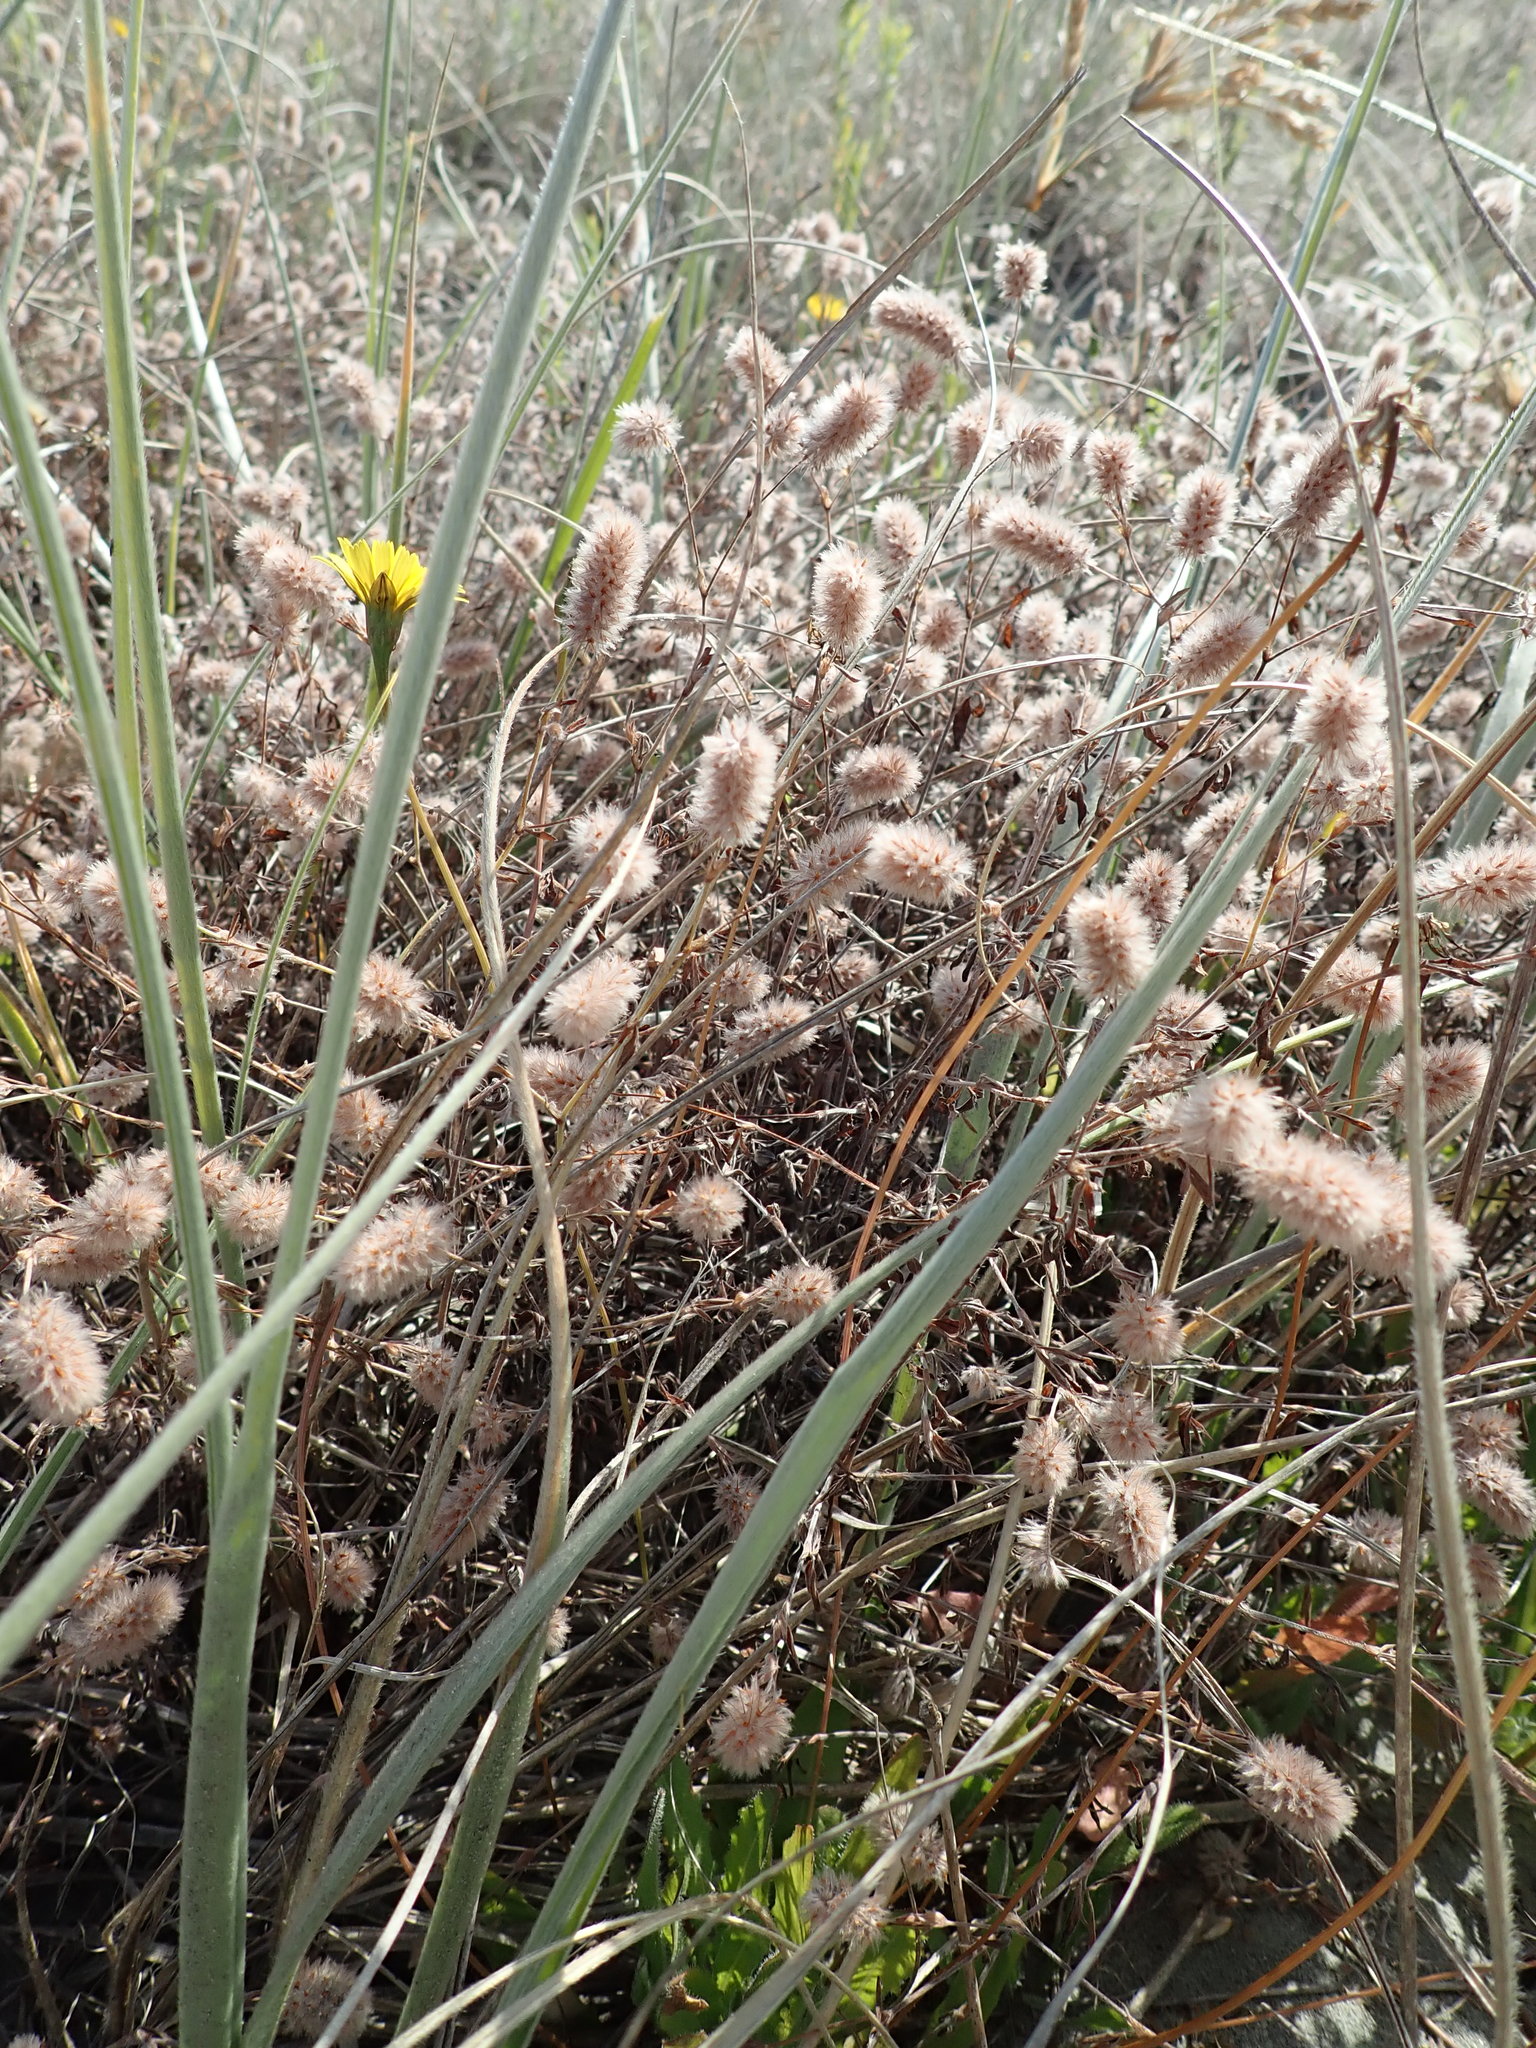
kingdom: Plantae
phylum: Tracheophyta
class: Magnoliopsida
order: Fabales
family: Fabaceae
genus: Trifolium
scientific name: Trifolium arvense
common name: Hare's-foot clover
